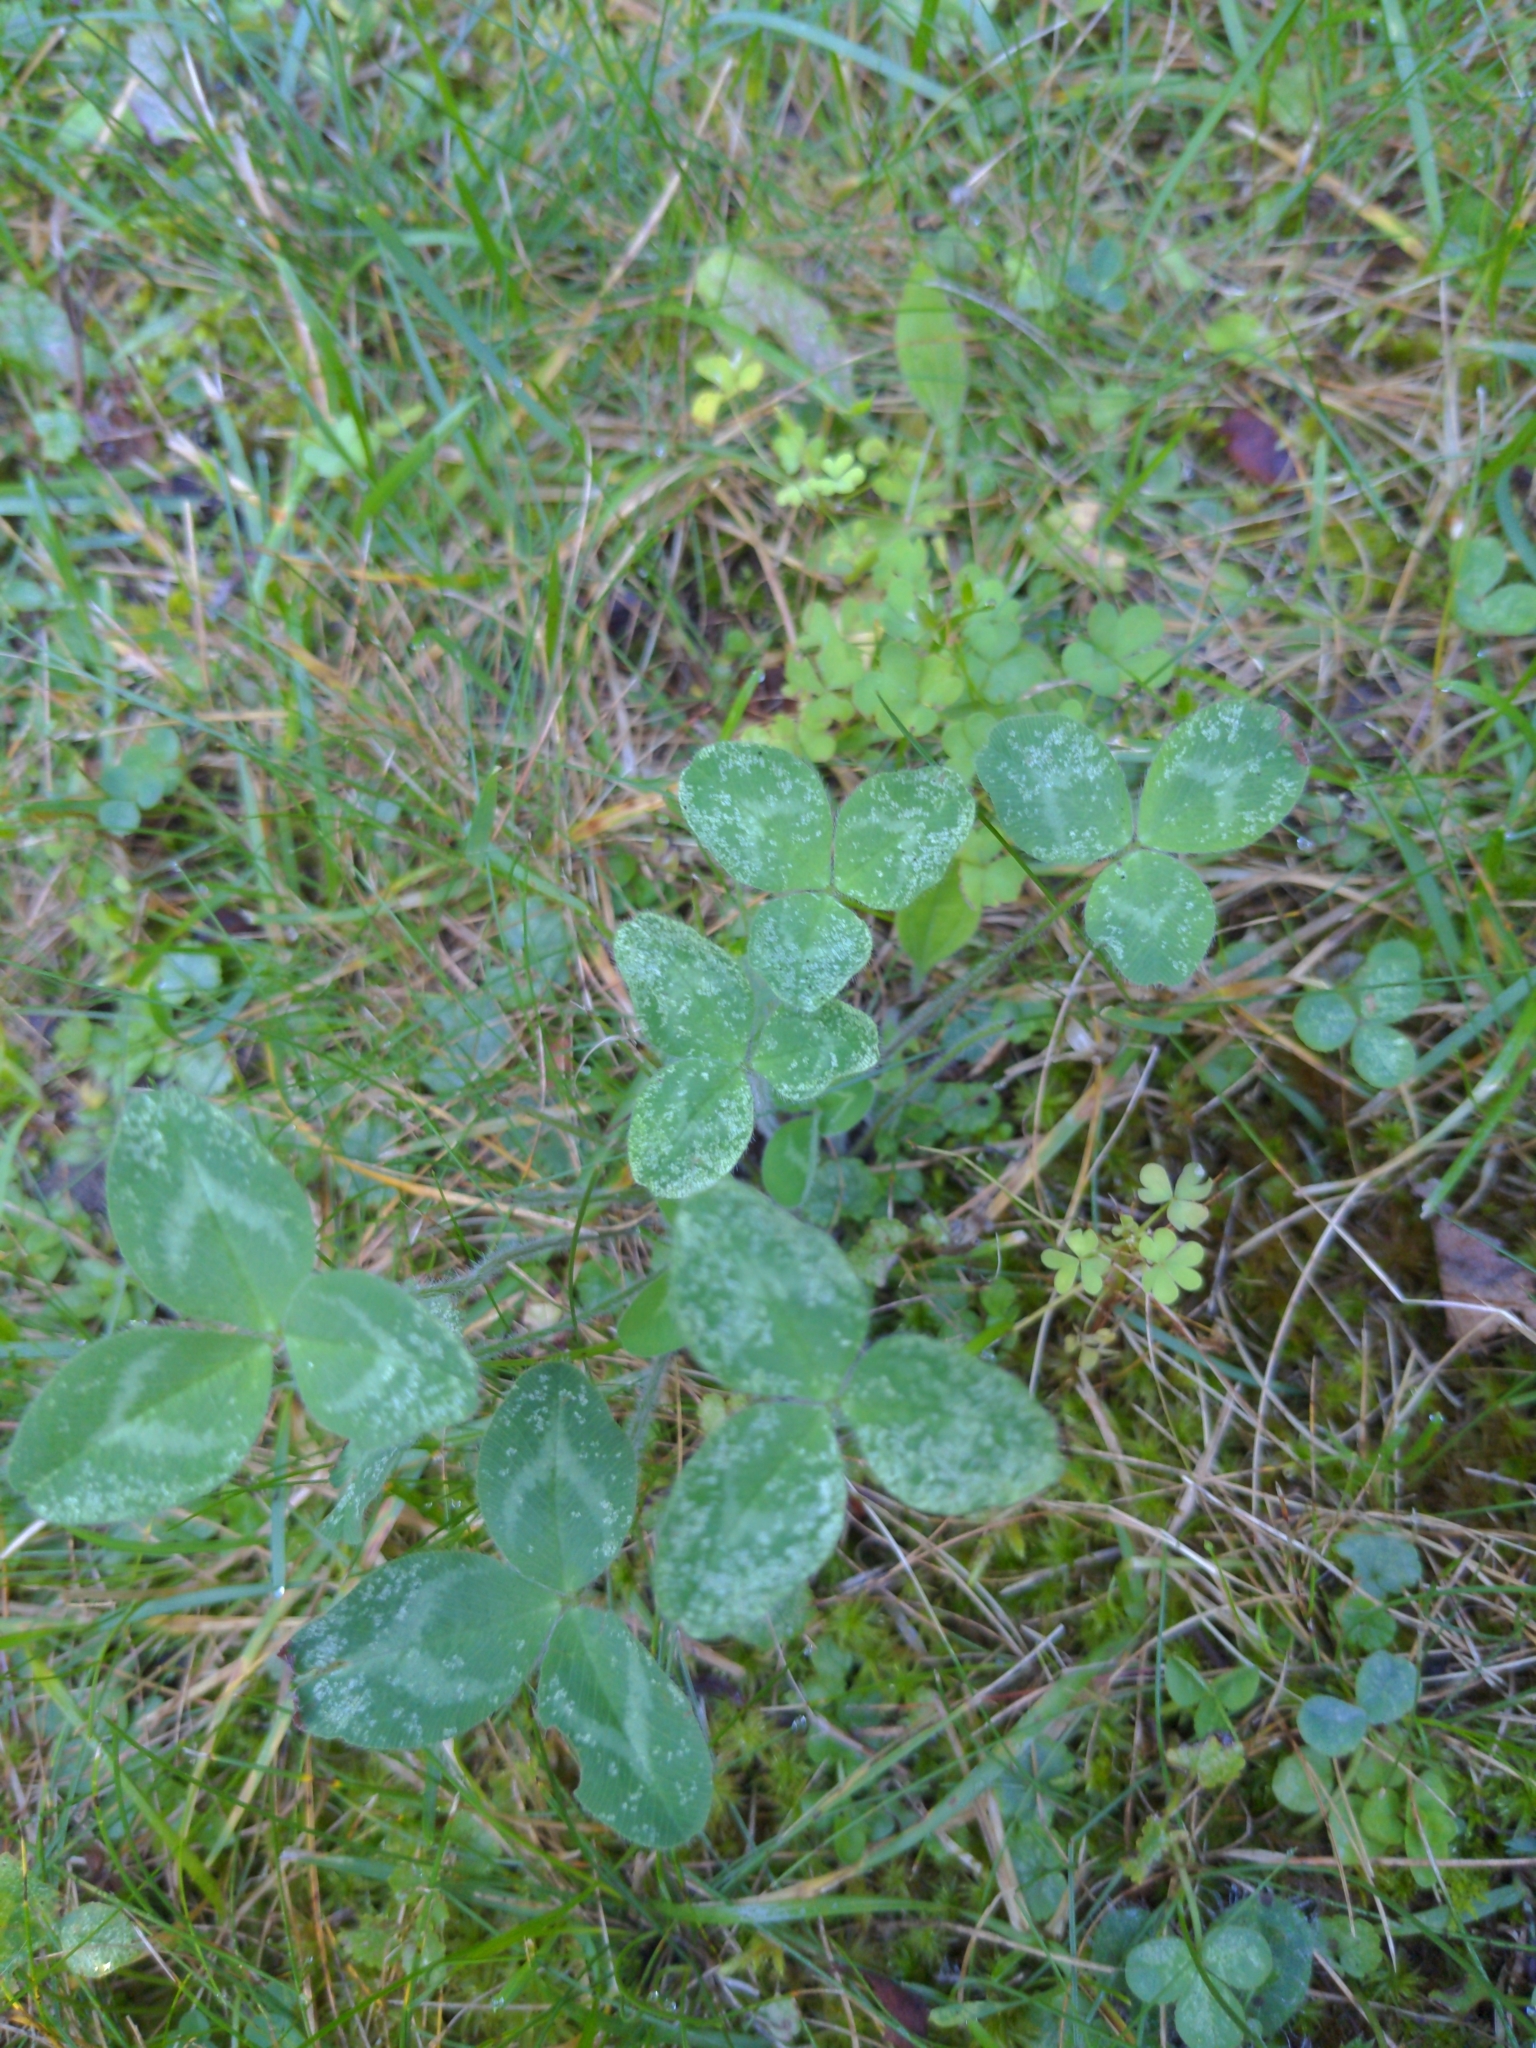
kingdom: Plantae
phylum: Tracheophyta
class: Magnoliopsida
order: Fabales
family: Fabaceae
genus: Trifolium
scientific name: Trifolium pratense
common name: Red clover
